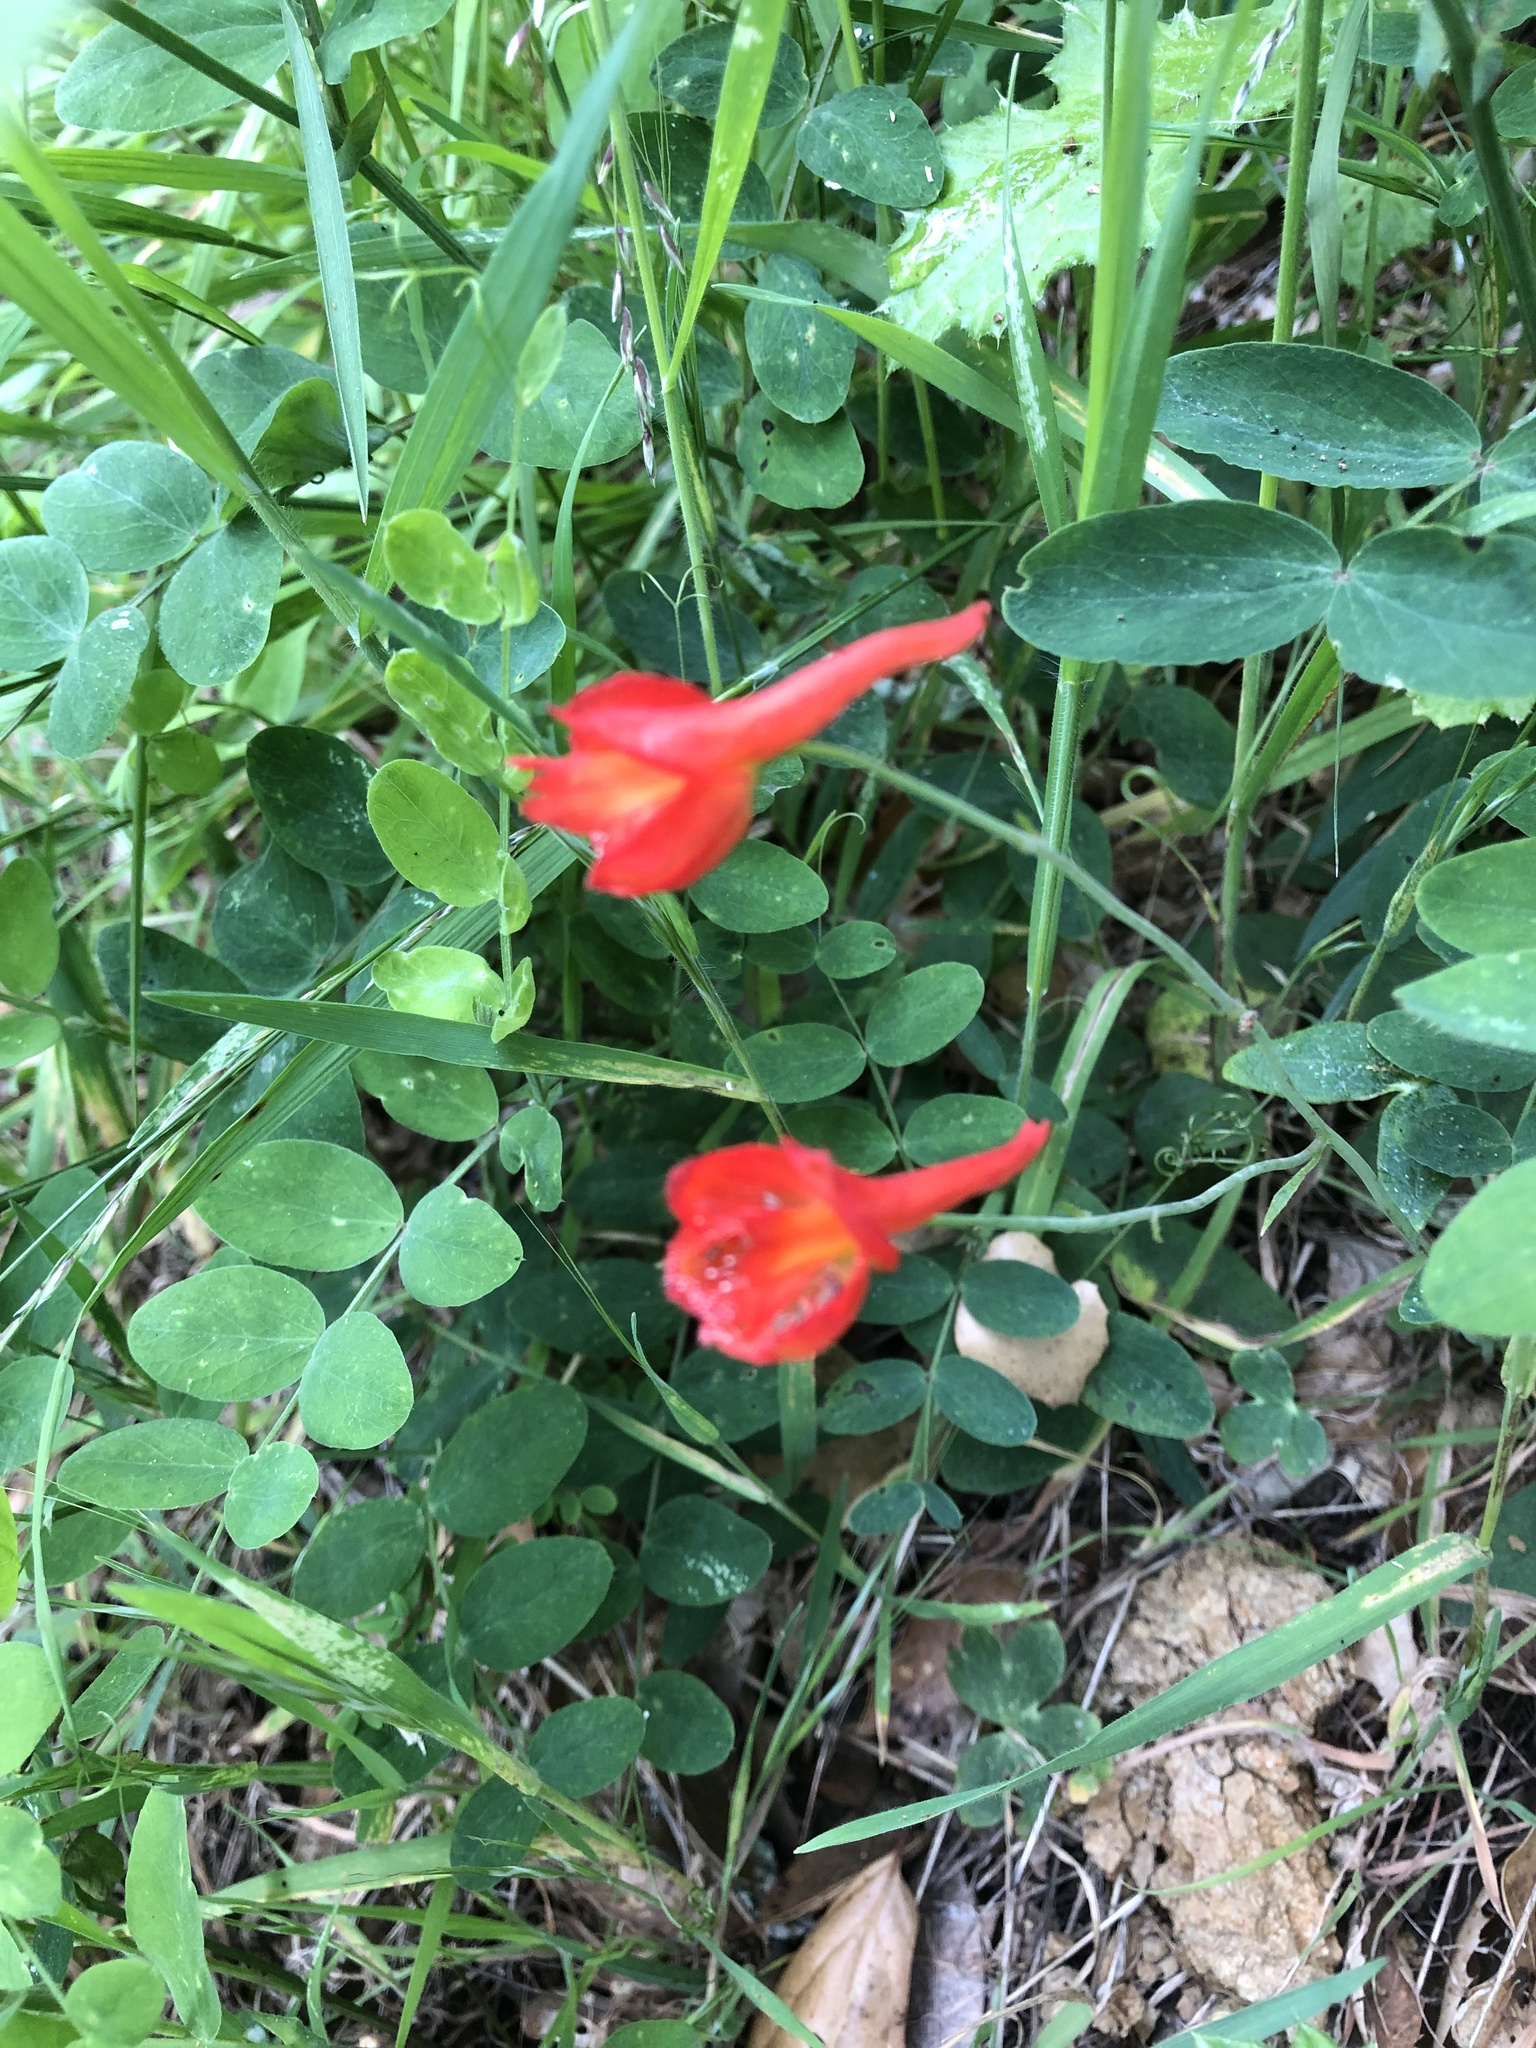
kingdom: Plantae
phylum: Tracheophyta
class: Magnoliopsida
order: Ranunculales
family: Ranunculaceae
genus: Delphinium
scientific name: Delphinium nudicaule
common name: Red larkspur
